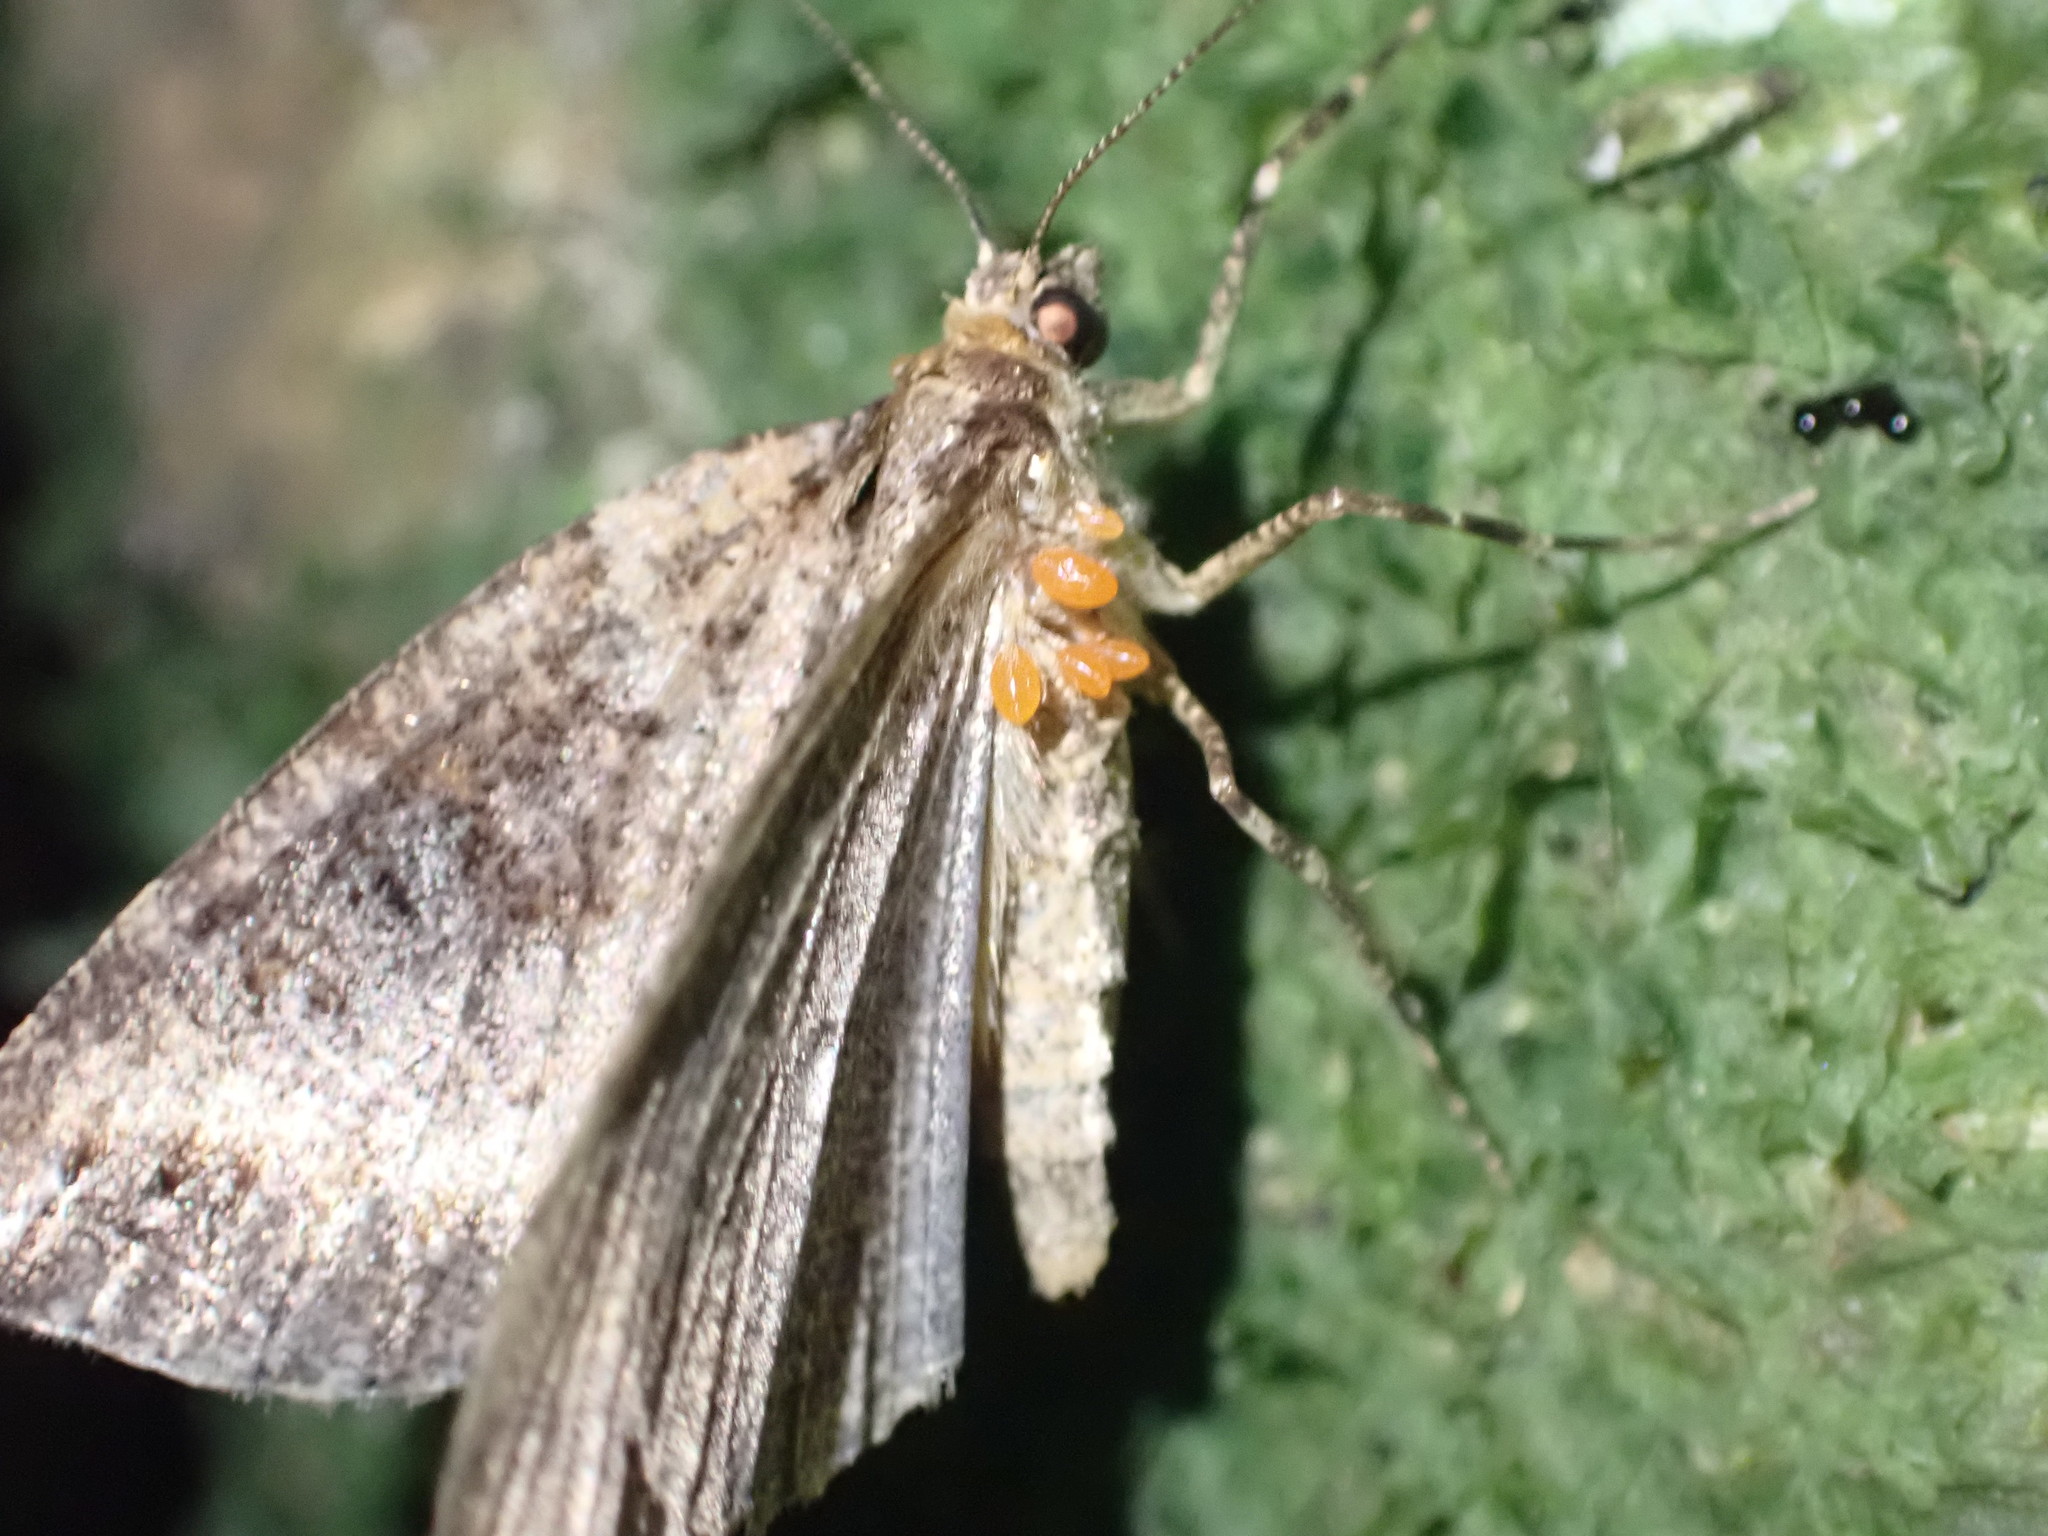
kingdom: Animalia
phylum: Arthropoda
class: Insecta
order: Lepidoptera
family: Geometridae
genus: Pseudocoremia
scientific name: Pseudocoremia ombrodes
